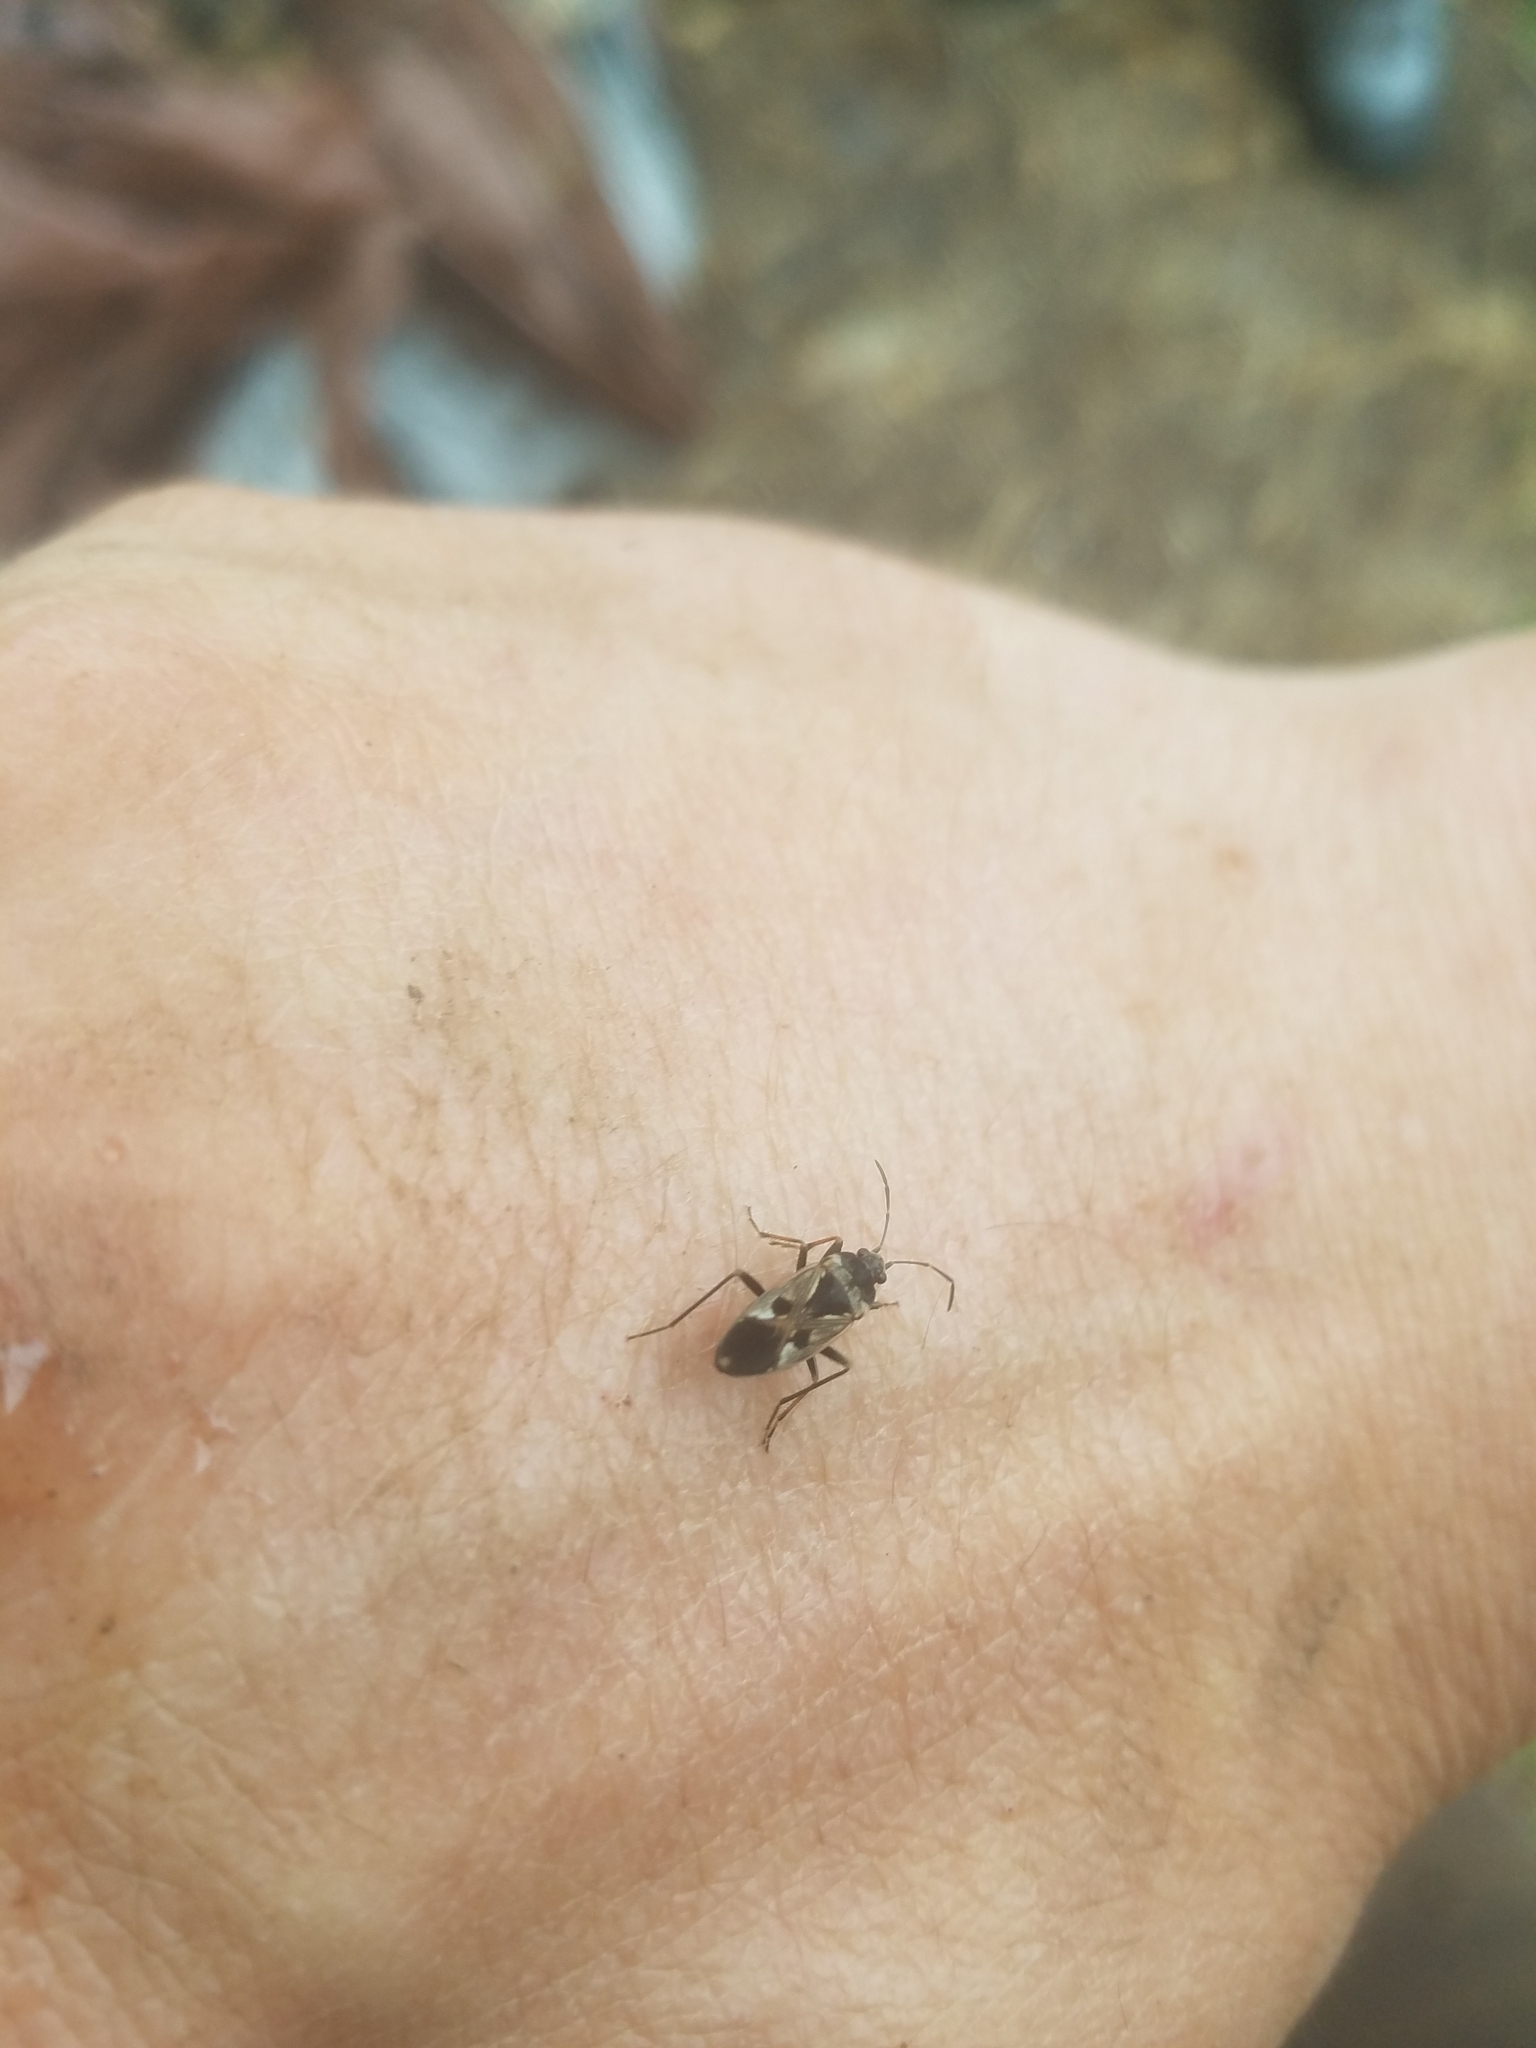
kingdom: Animalia
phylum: Arthropoda
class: Insecta
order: Hemiptera
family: Rhyparochromidae
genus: Rhyparochromus
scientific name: Rhyparochromus vulgaris
